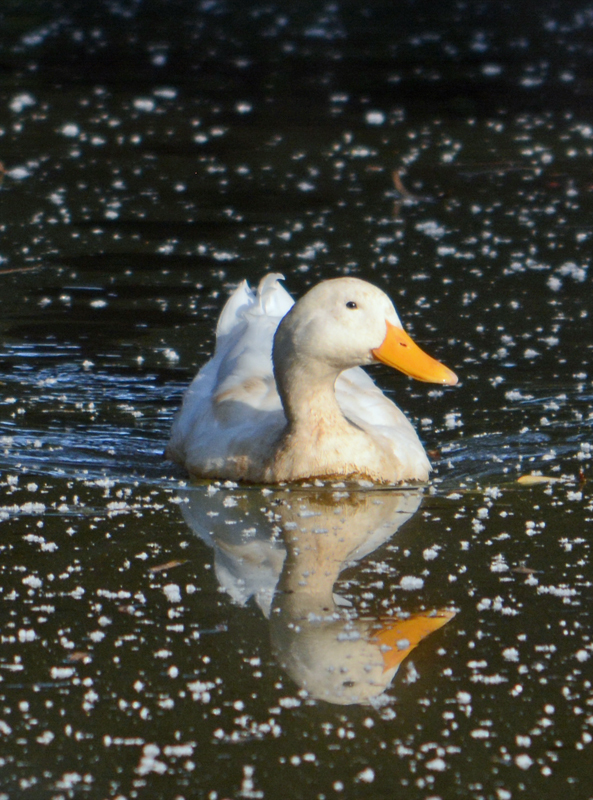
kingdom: Animalia
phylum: Chordata
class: Aves
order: Anseriformes
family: Anatidae
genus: Anas
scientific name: Anas platyrhynchos
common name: Mallard
